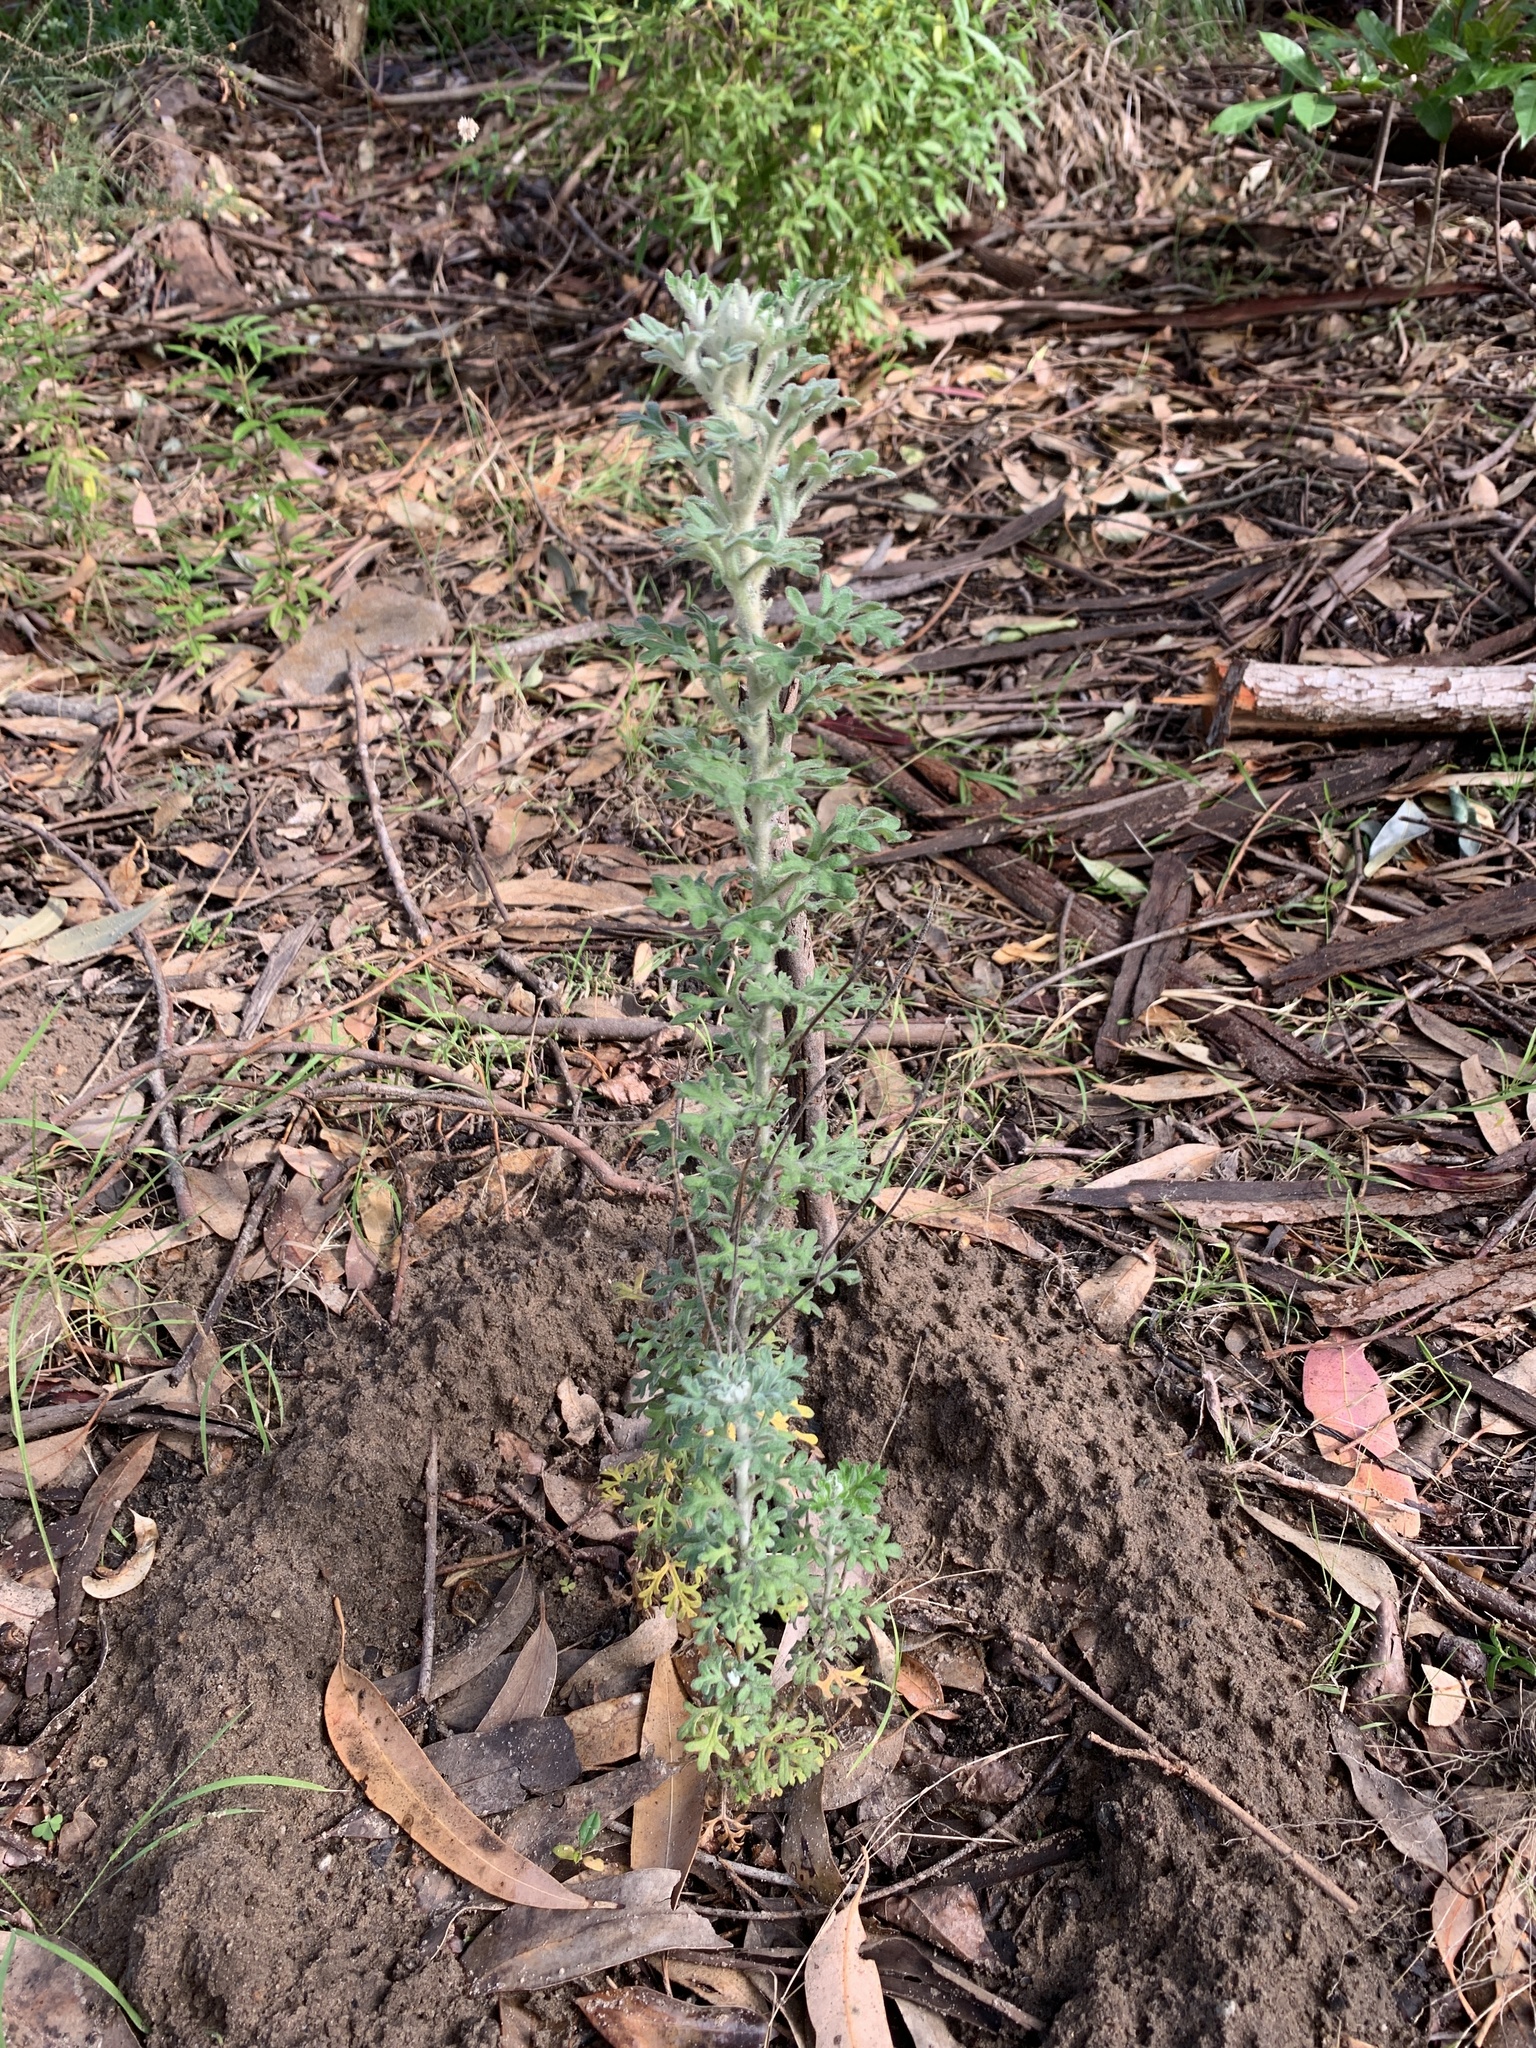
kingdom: Plantae
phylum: Tracheophyta
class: Magnoliopsida
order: Apiales
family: Apiaceae
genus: Actinotus
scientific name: Actinotus helianthi
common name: Flannel-flower
